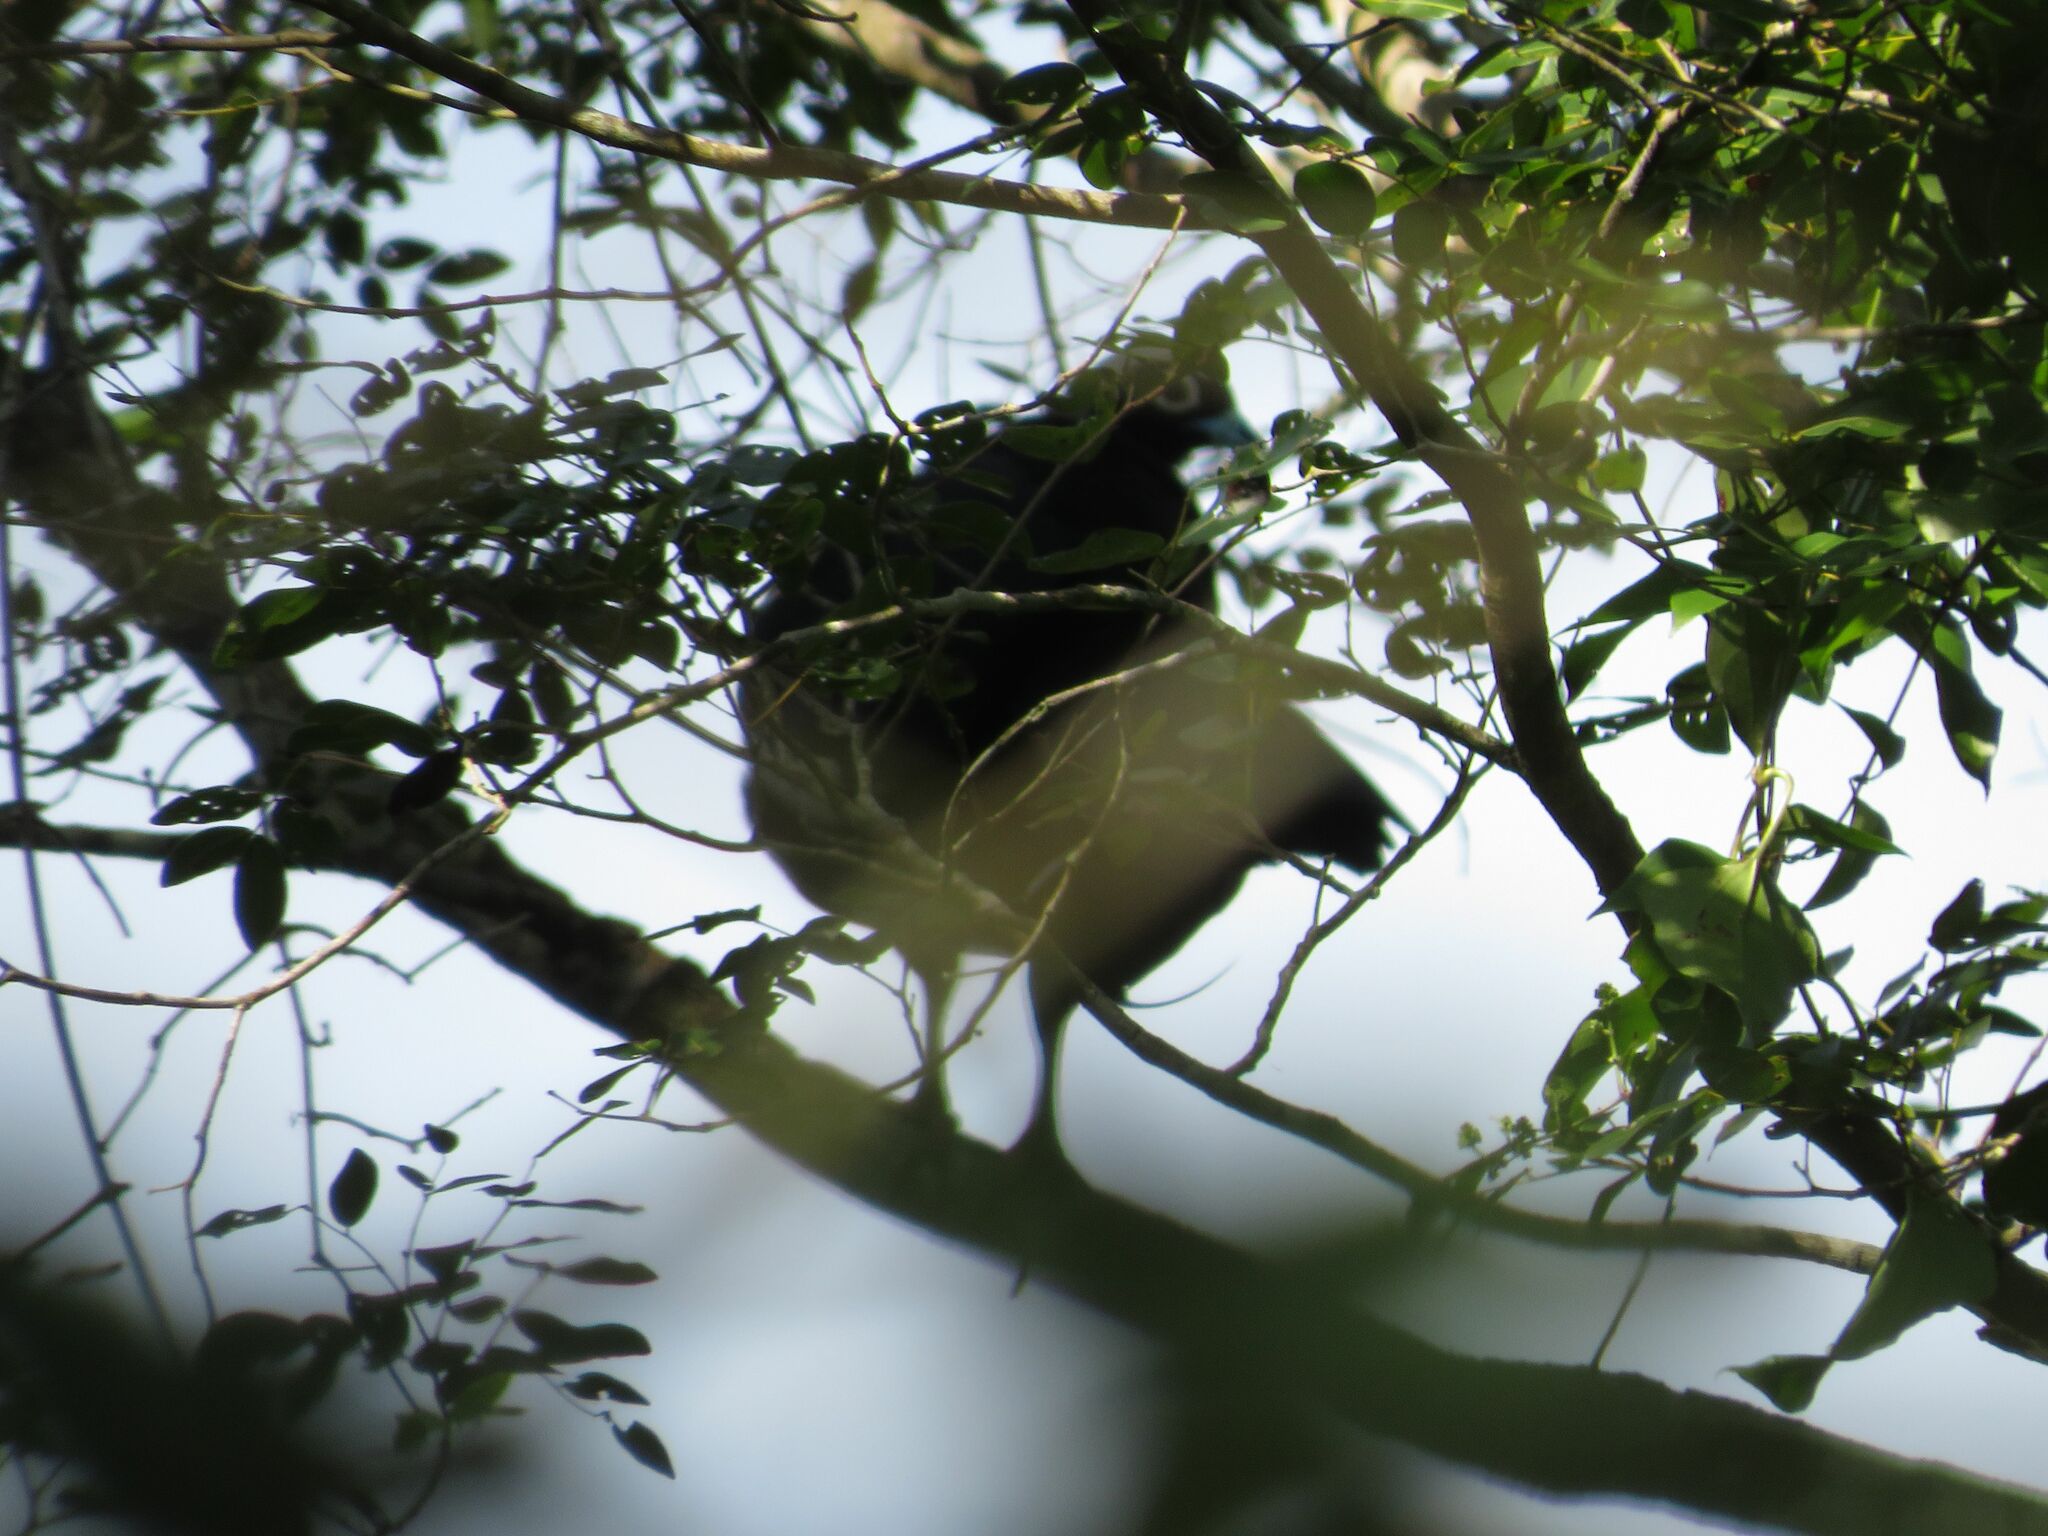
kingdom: Animalia
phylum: Chordata
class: Aves
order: Galliformes
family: Cracidae
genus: Pipile
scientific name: Pipile jacutinga
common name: Black-fronted piping-guan
